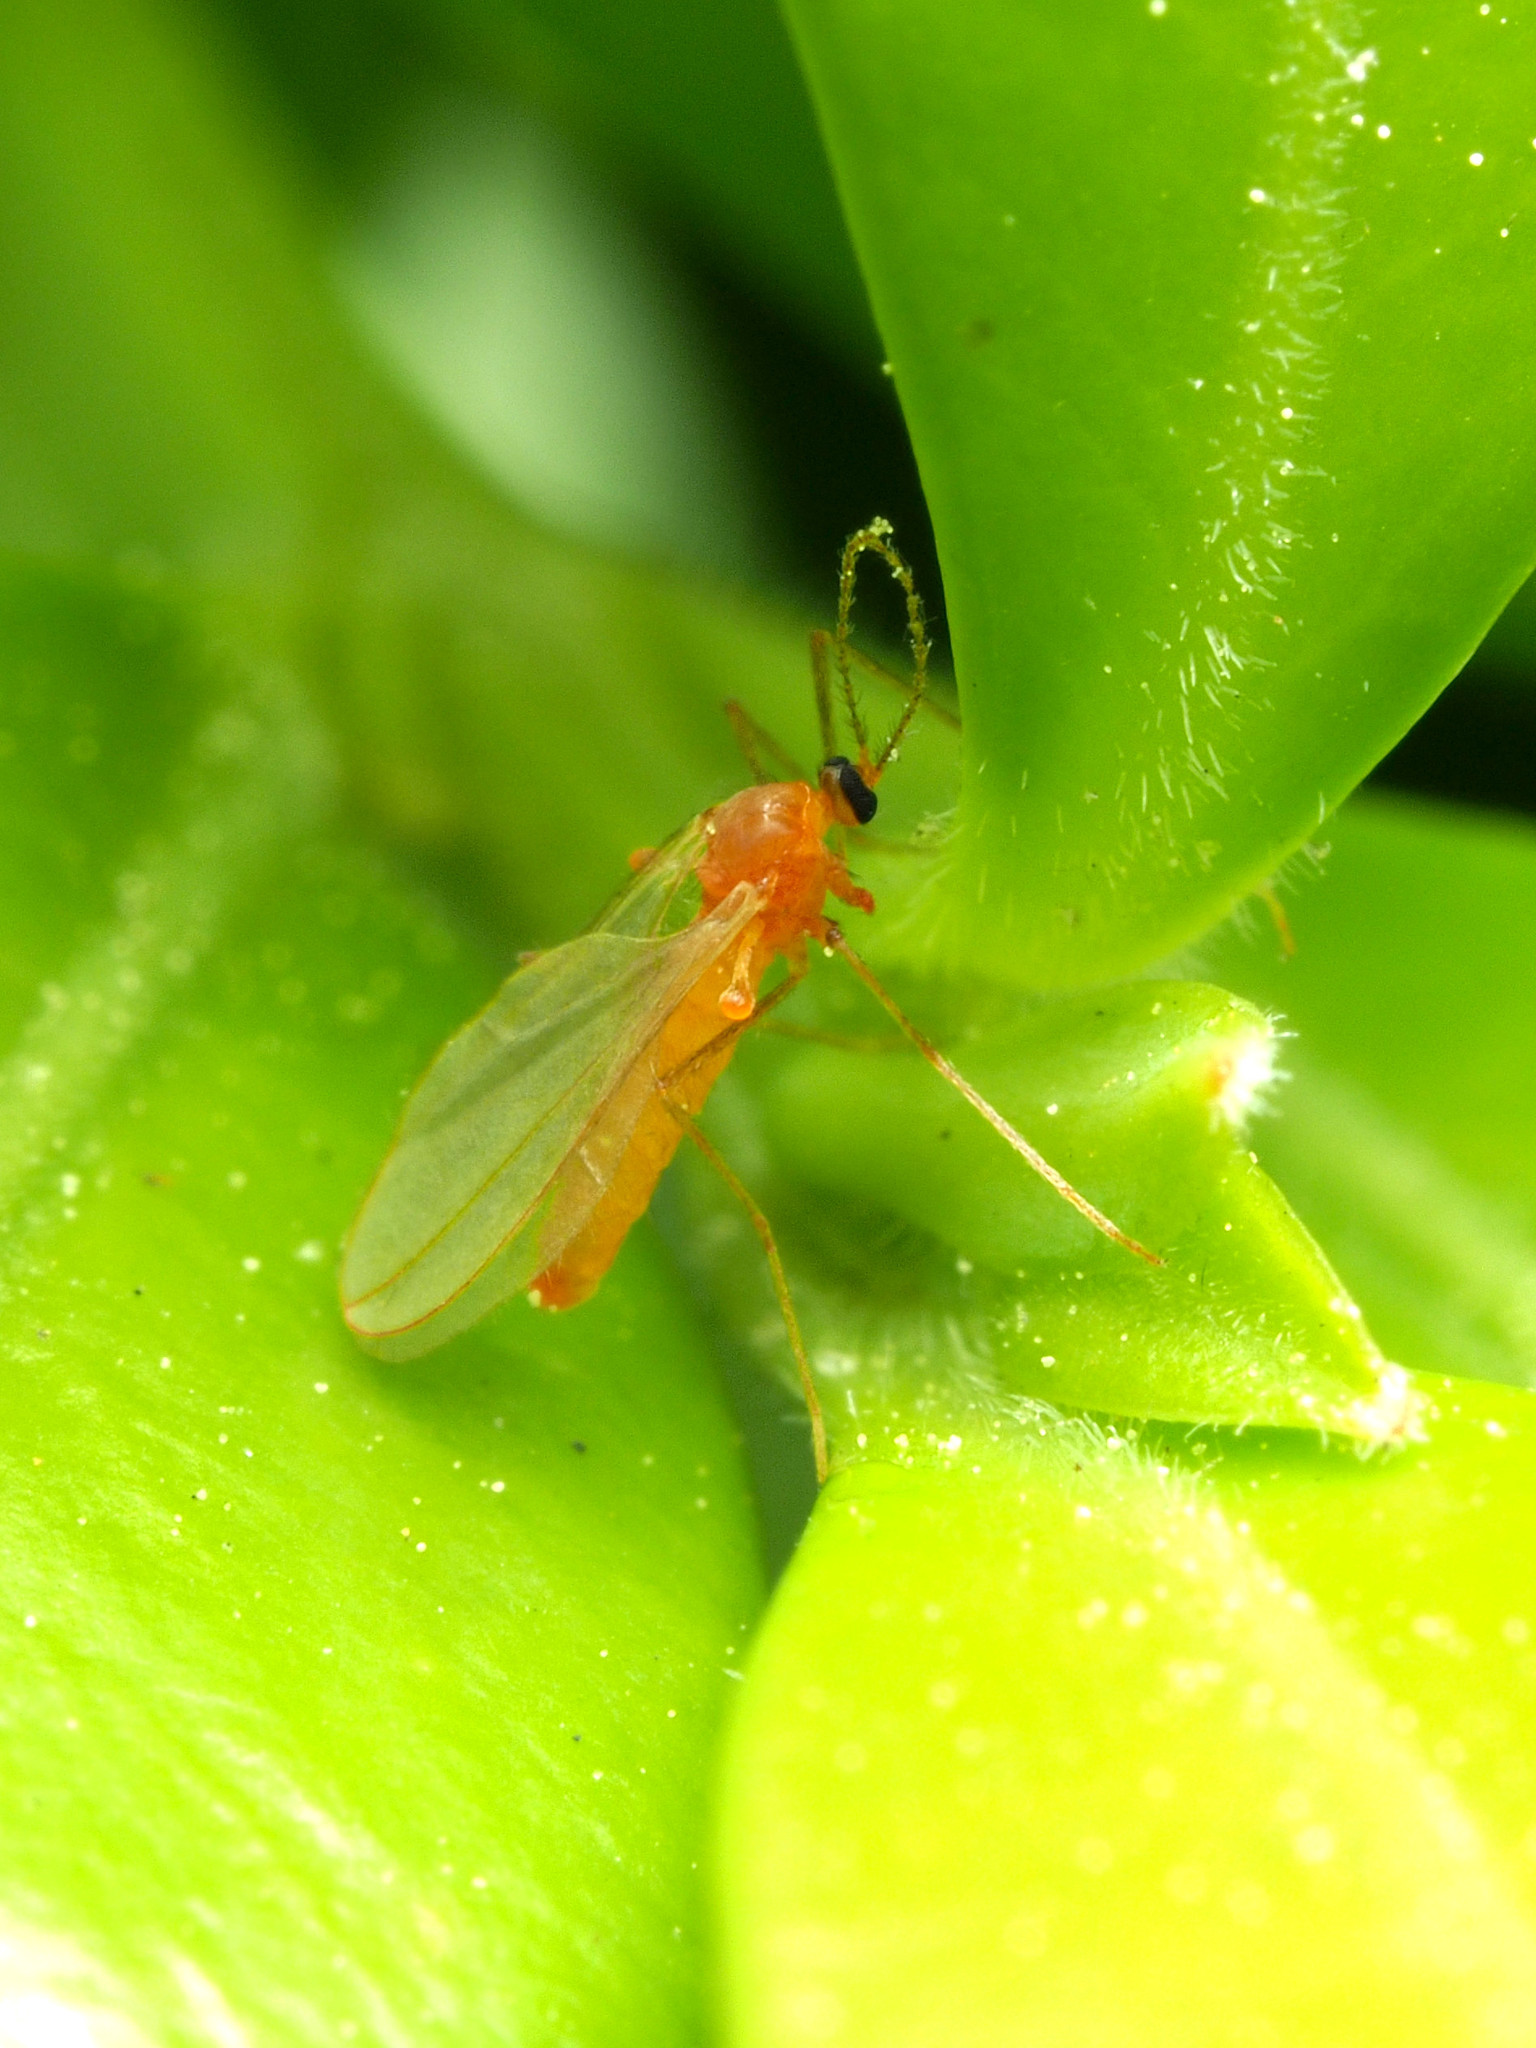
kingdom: Animalia
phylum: Arthropoda
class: Insecta
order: Diptera
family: Cecidomyiidae
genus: Monarthropalpus
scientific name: Monarthropalpus flavus
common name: Boxwood leafminer
